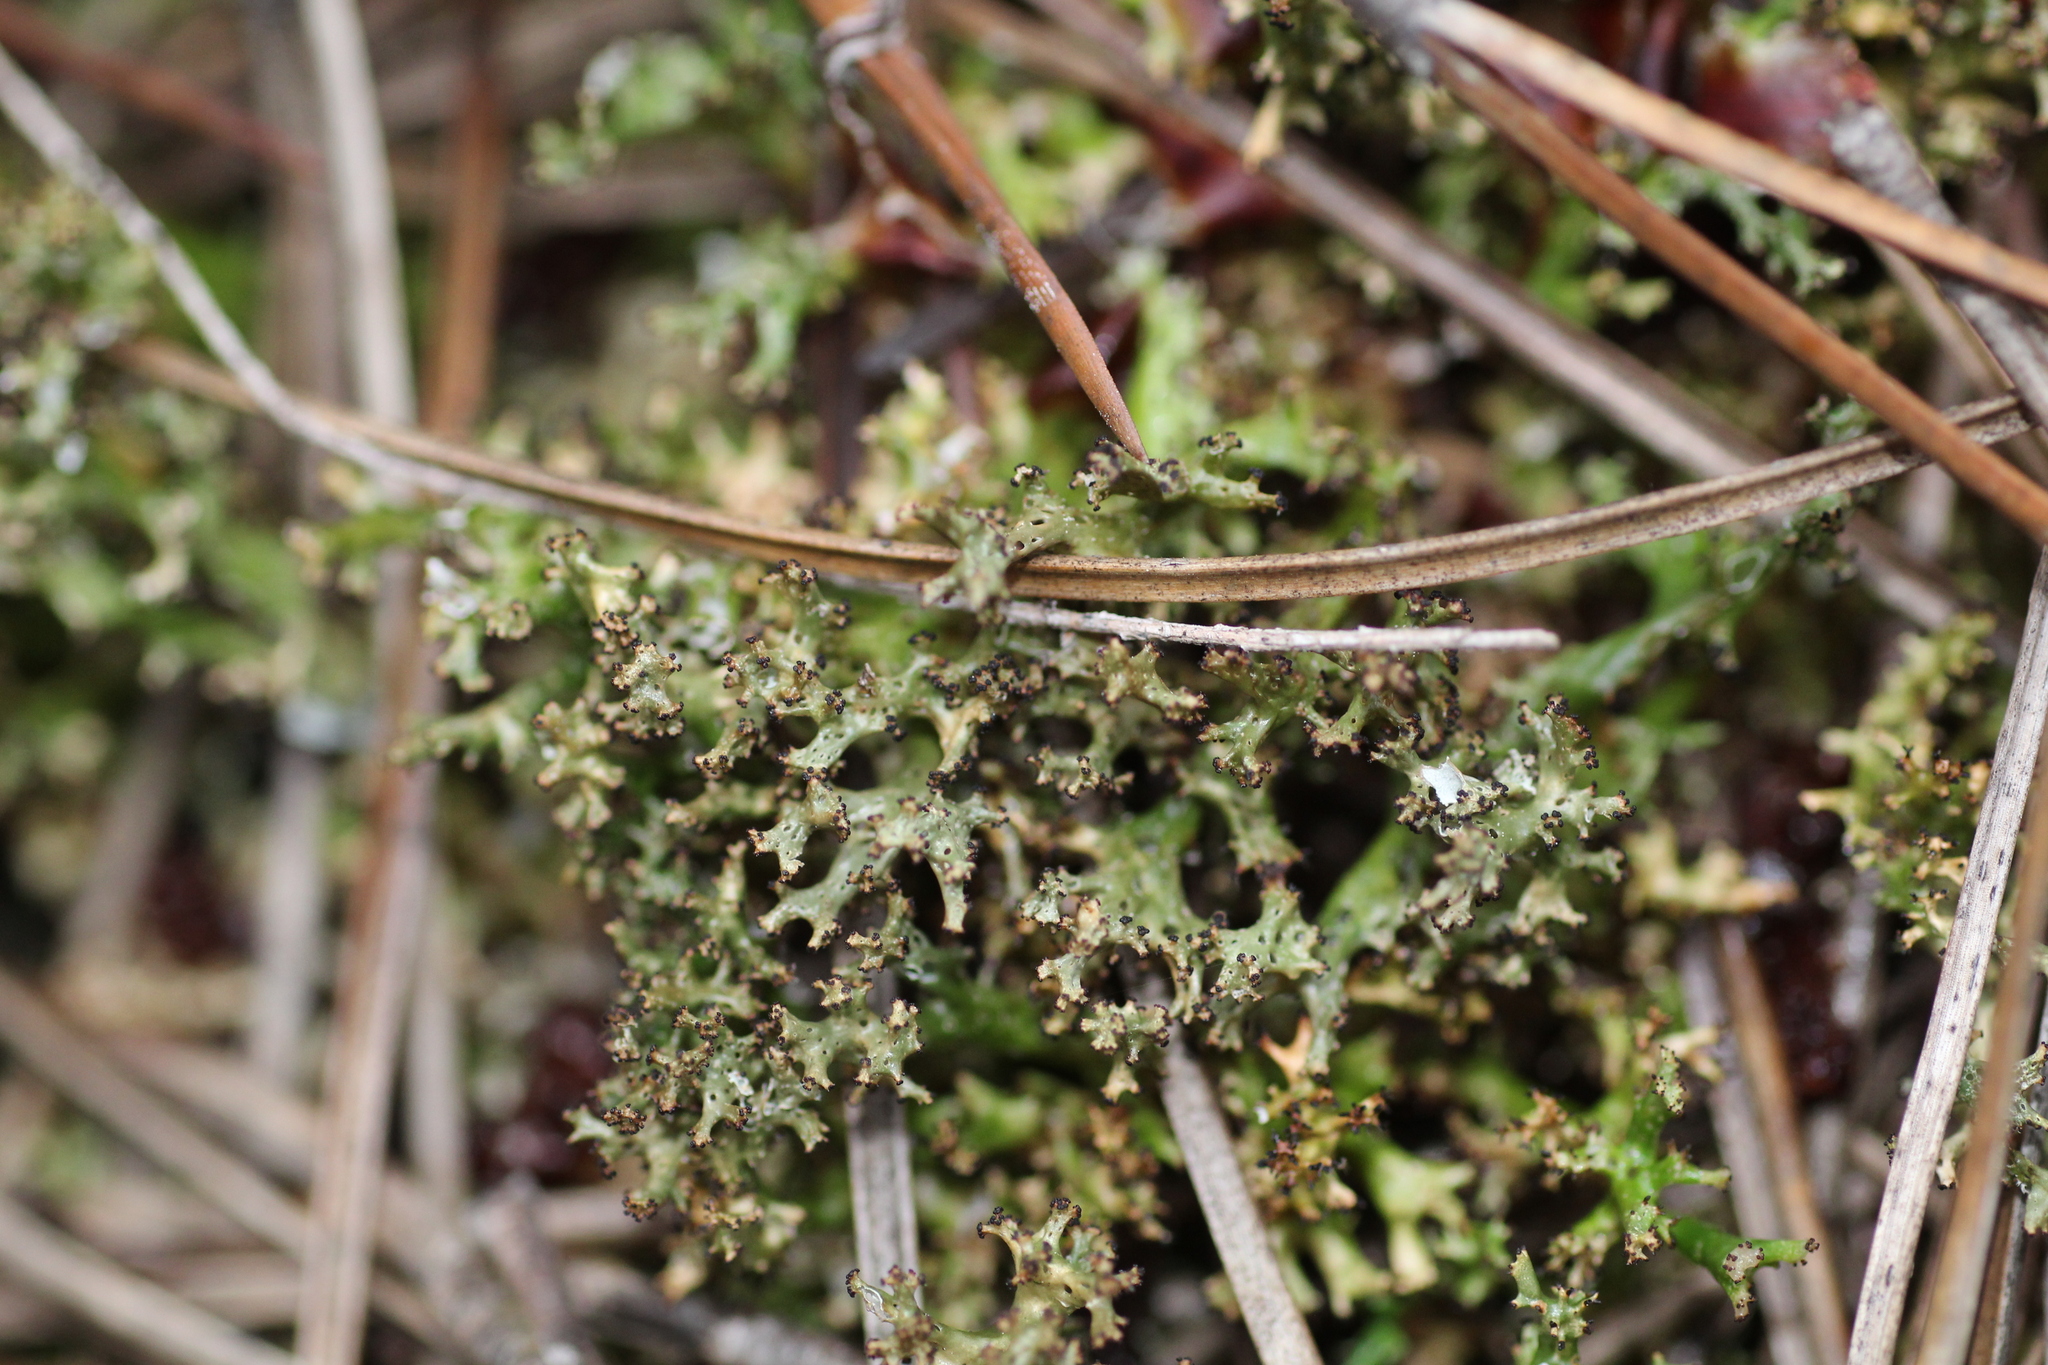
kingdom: Fungi
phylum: Ascomycota
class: Lecanoromycetes
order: Lecanorales
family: Cladoniaceae
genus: Cladia
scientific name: Cladia aggregata
